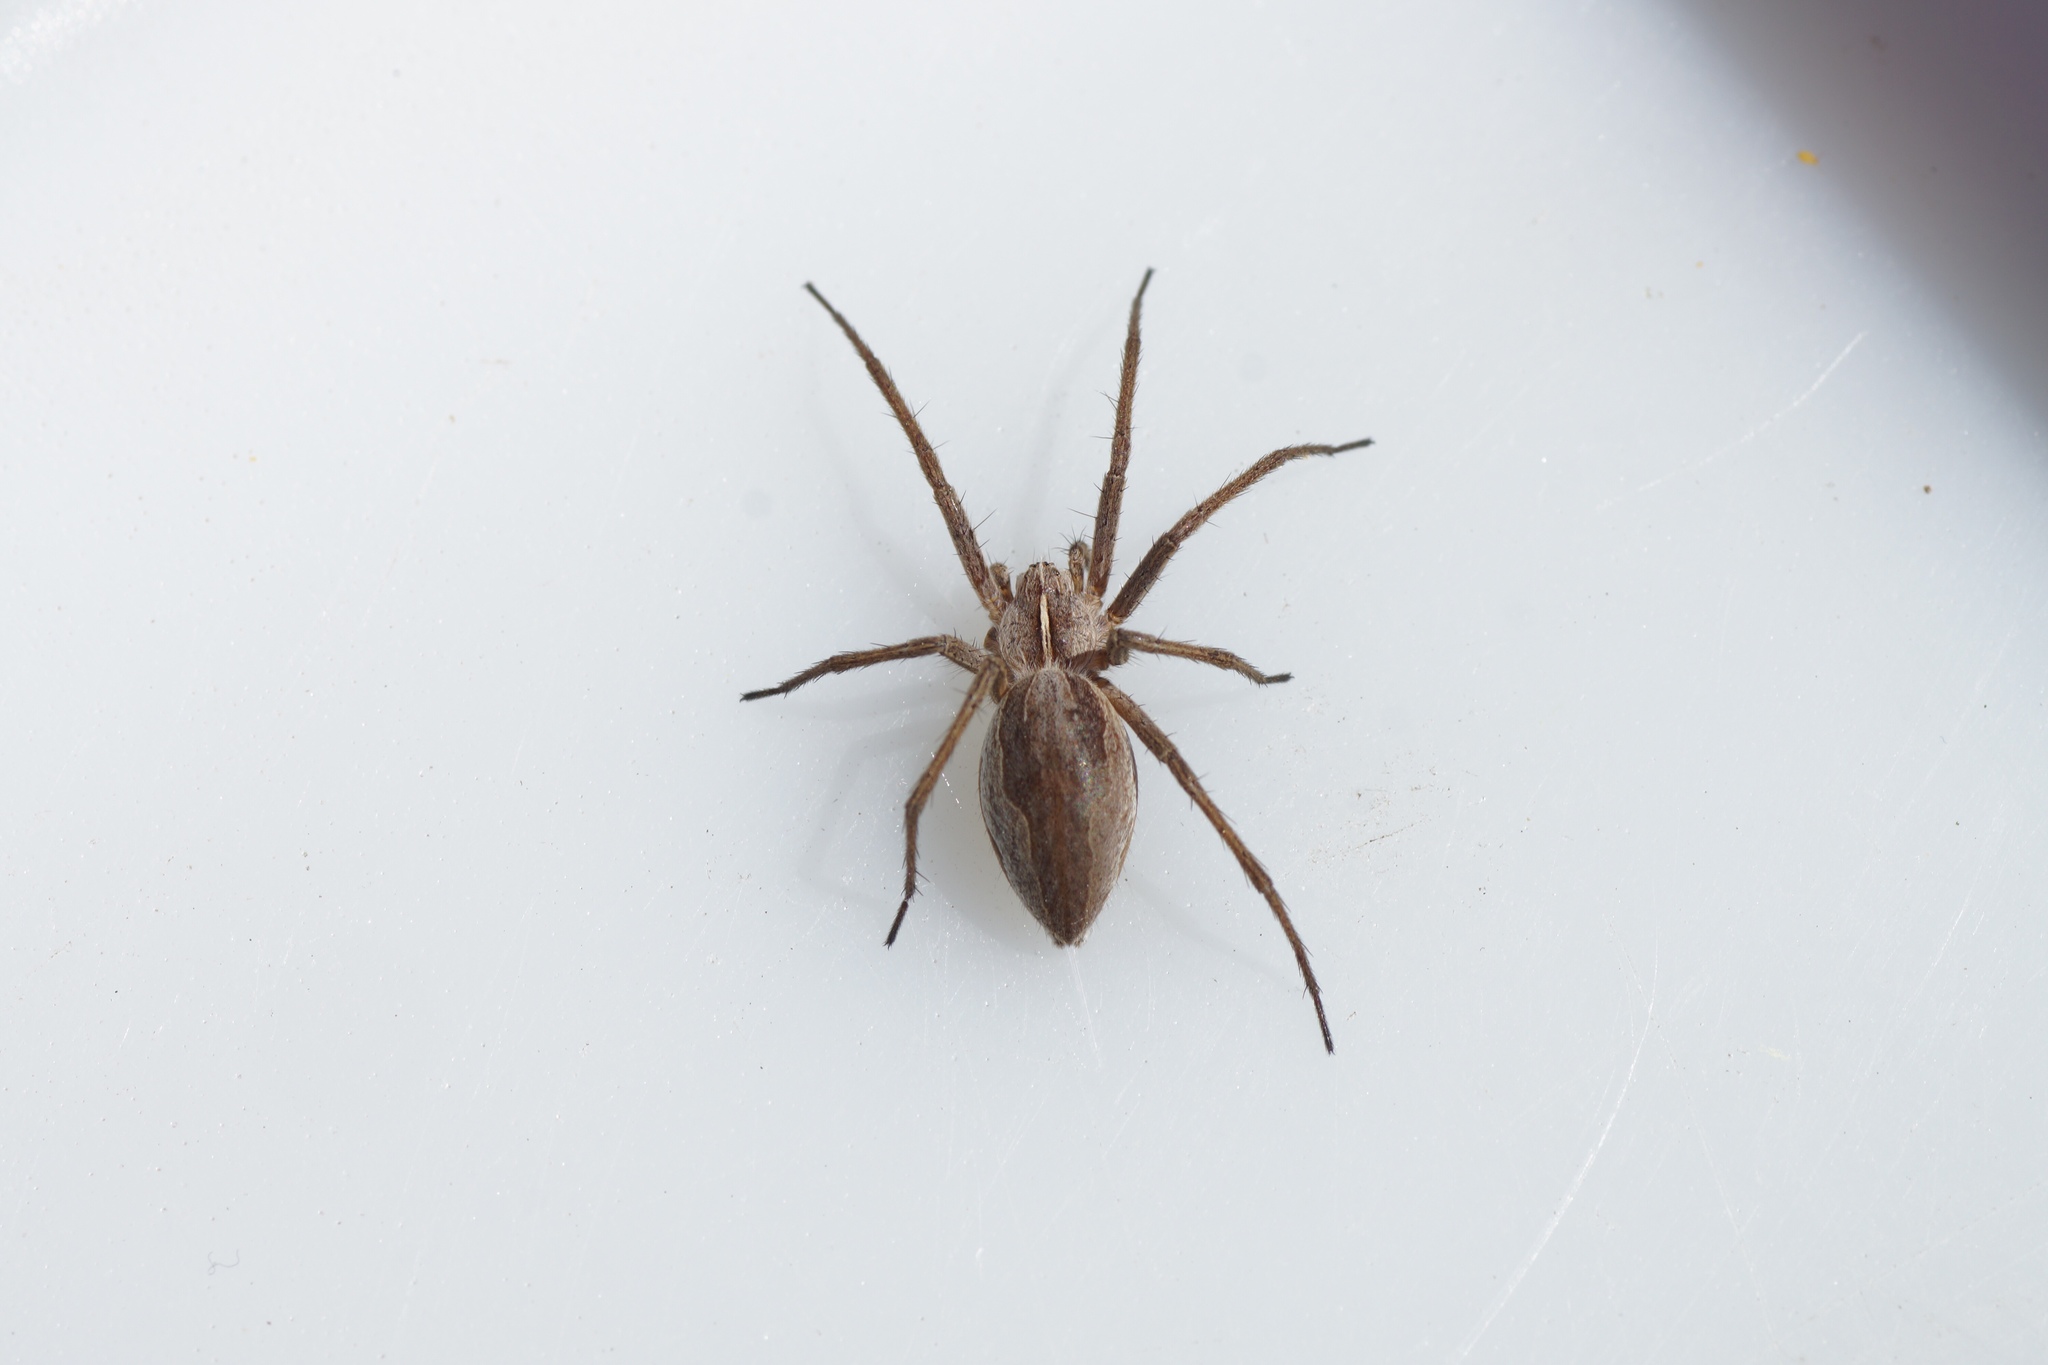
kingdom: Animalia
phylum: Arthropoda
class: Arachnida
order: Araneae
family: Pisauridae
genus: Pisaura
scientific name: Pisaura mirabilis
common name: Tent spider
